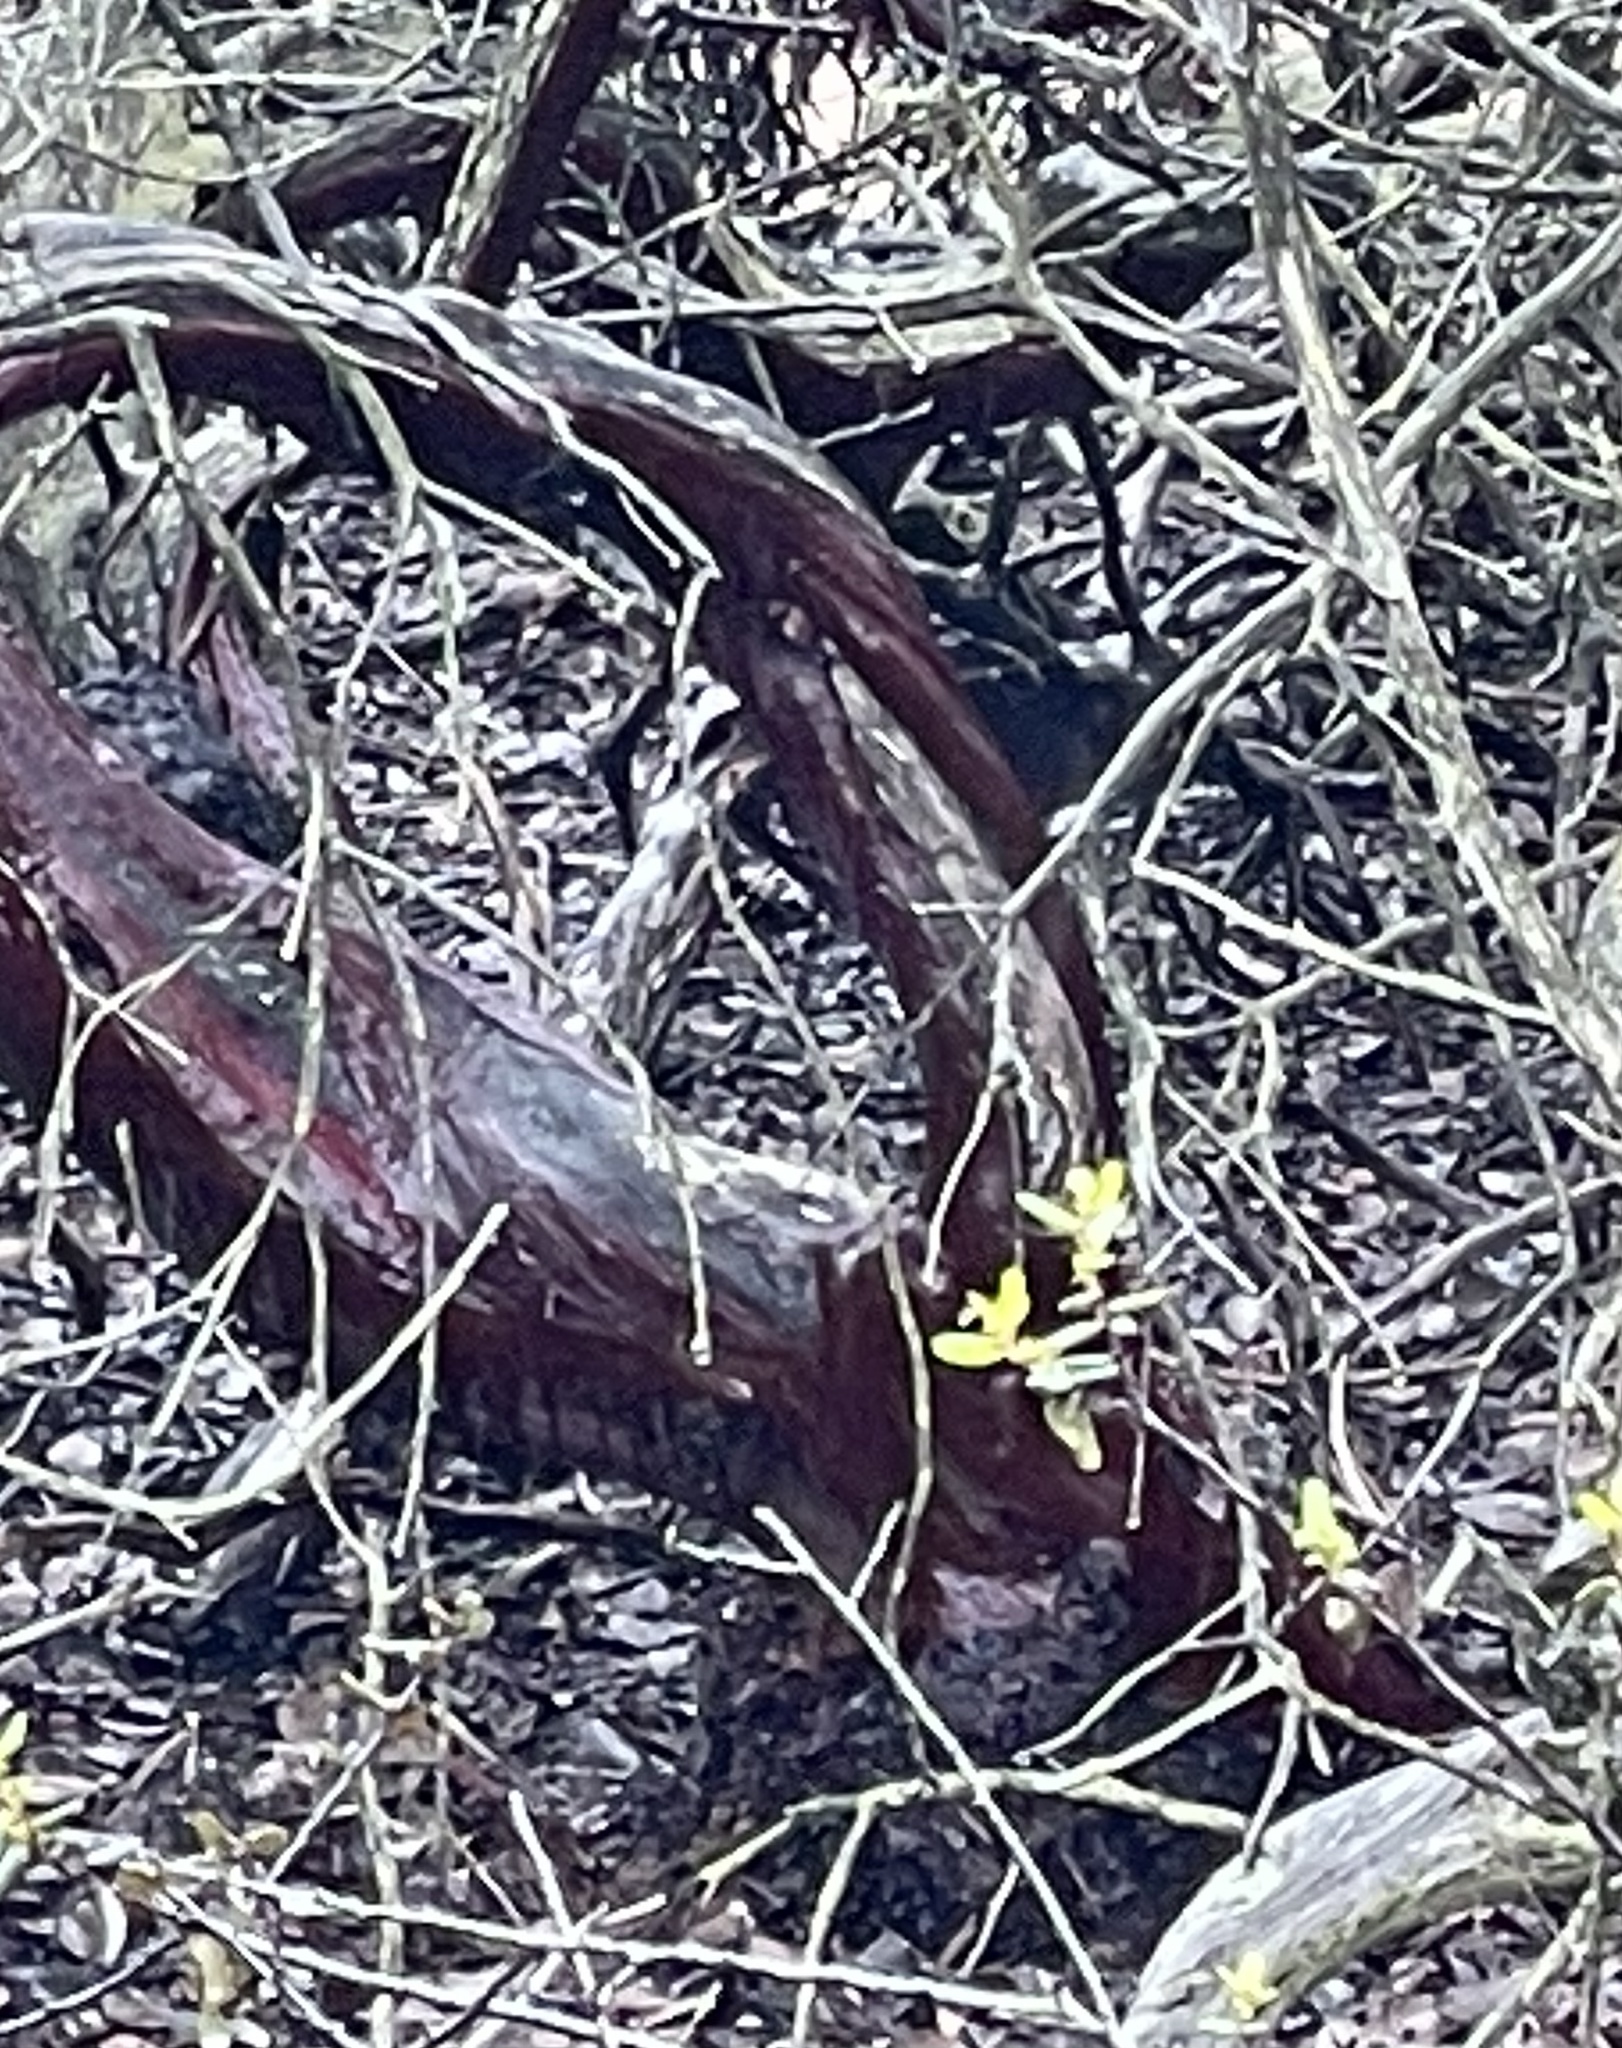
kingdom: Plantae
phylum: Tracheophyta
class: Magnoliopsida
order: Ericales
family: Ericaceae
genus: Arctostaphylos
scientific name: Arctostaphylos glandulosa
